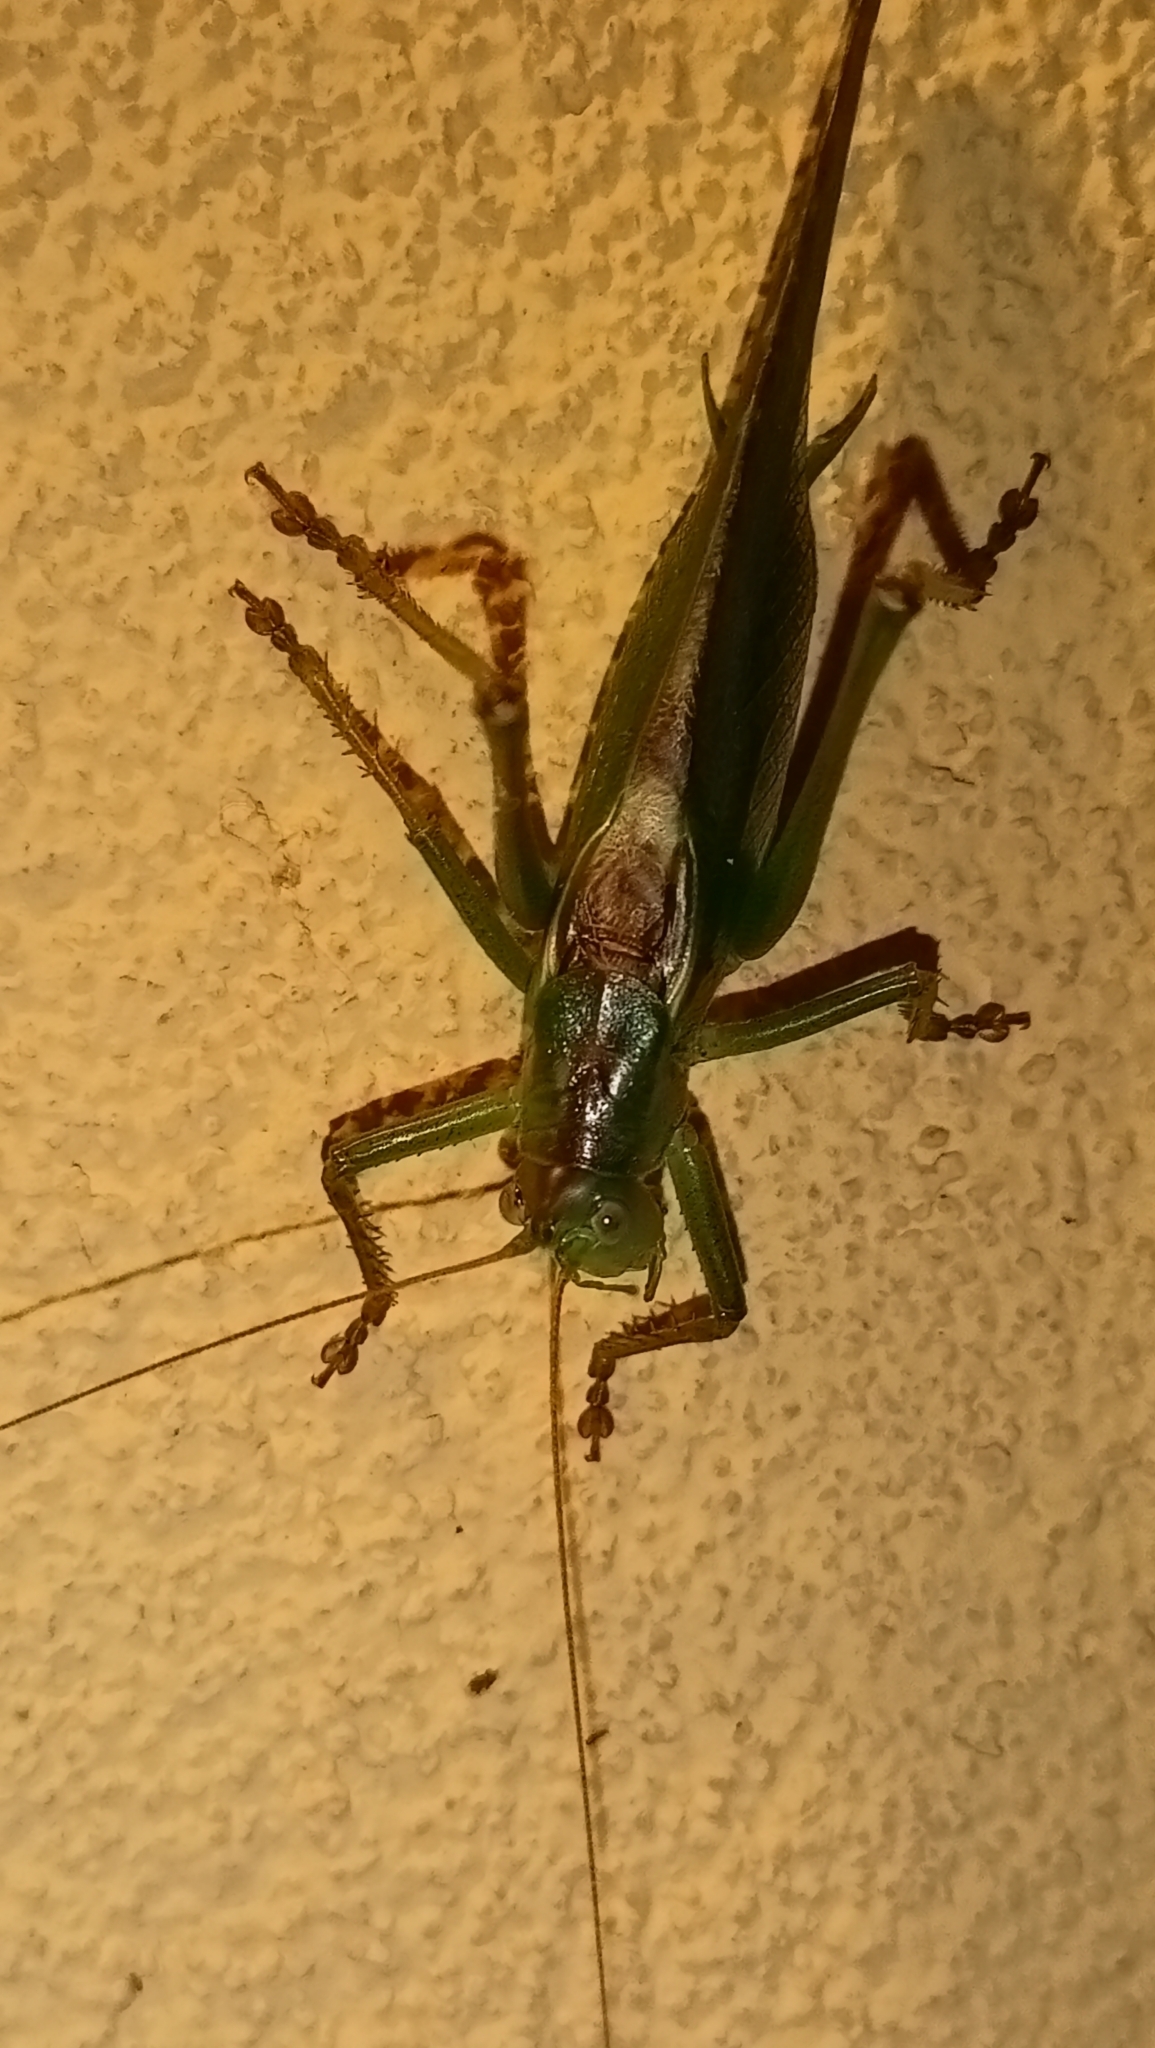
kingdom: Animalia
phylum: Arthropoda
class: Insecta
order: Orthoptera
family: Tettigoniidae
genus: Tettigonia
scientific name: Tettigonia viridissima
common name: Great green bush-cricket
